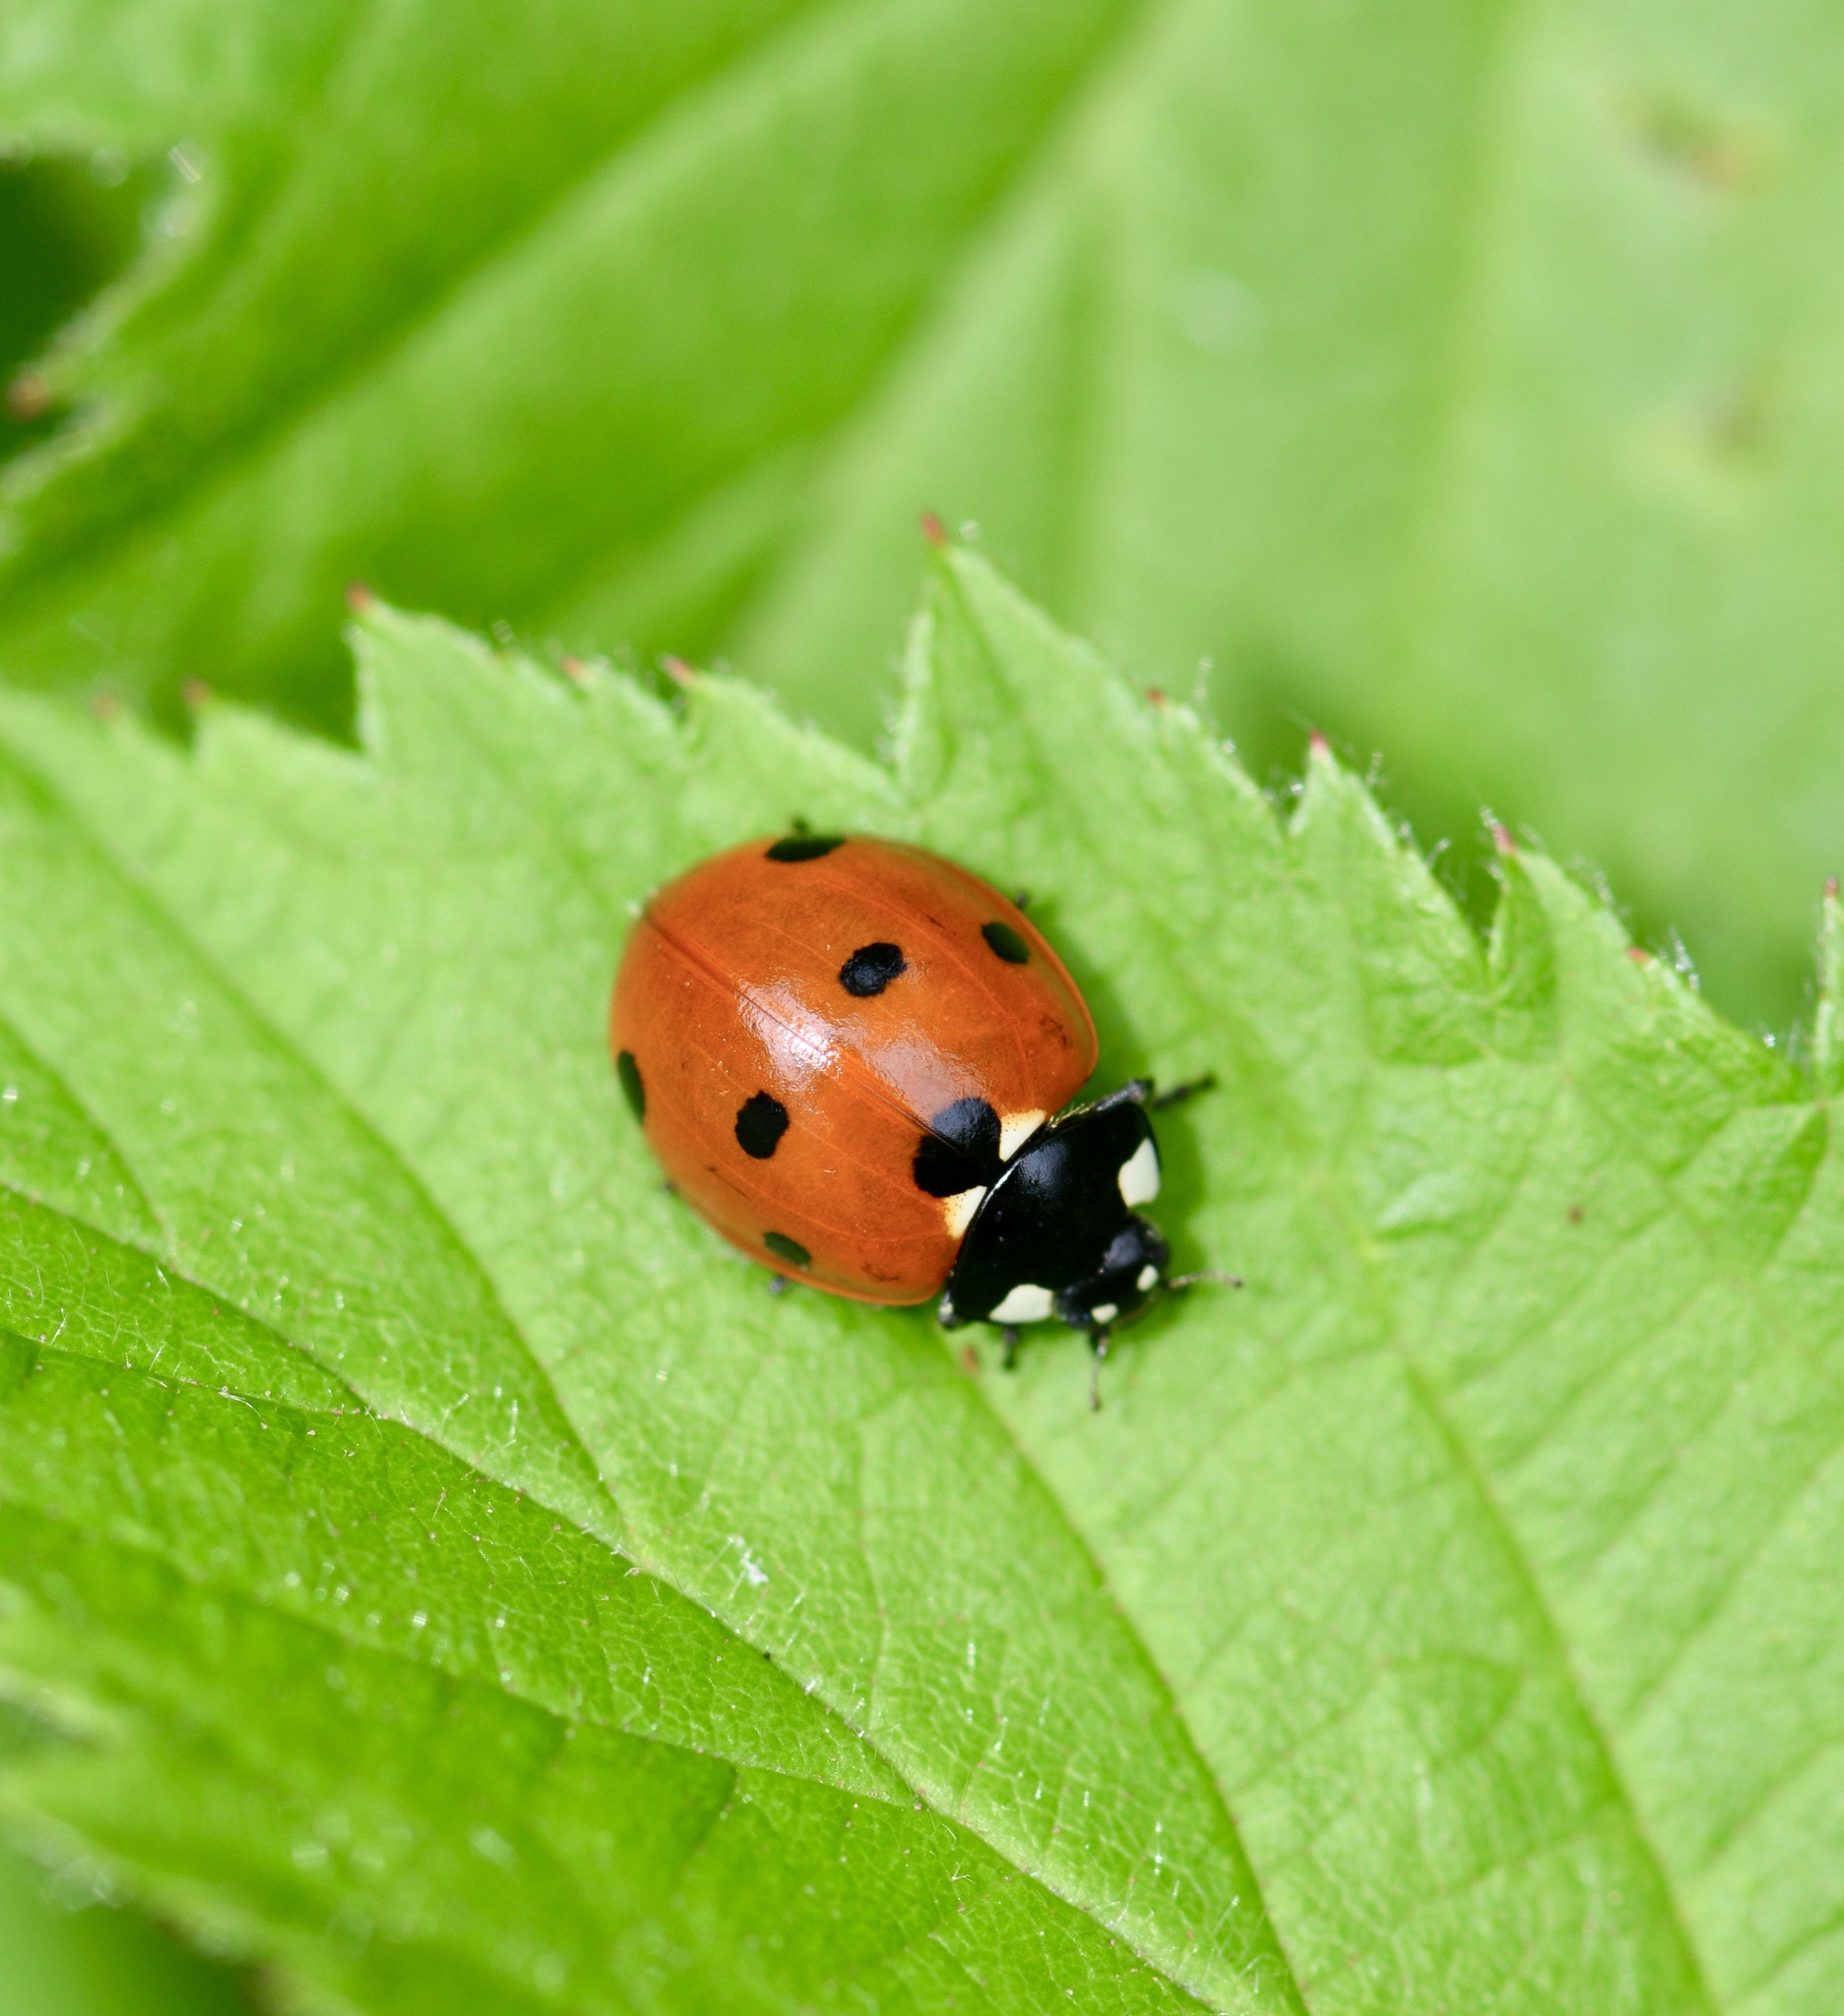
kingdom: Animalia
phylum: Arthropoda
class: Insecta
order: Coleoptera
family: Coccinellidae
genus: Coccinella
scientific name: Coccinella septempunctata
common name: Sevenspotted lady beetle
